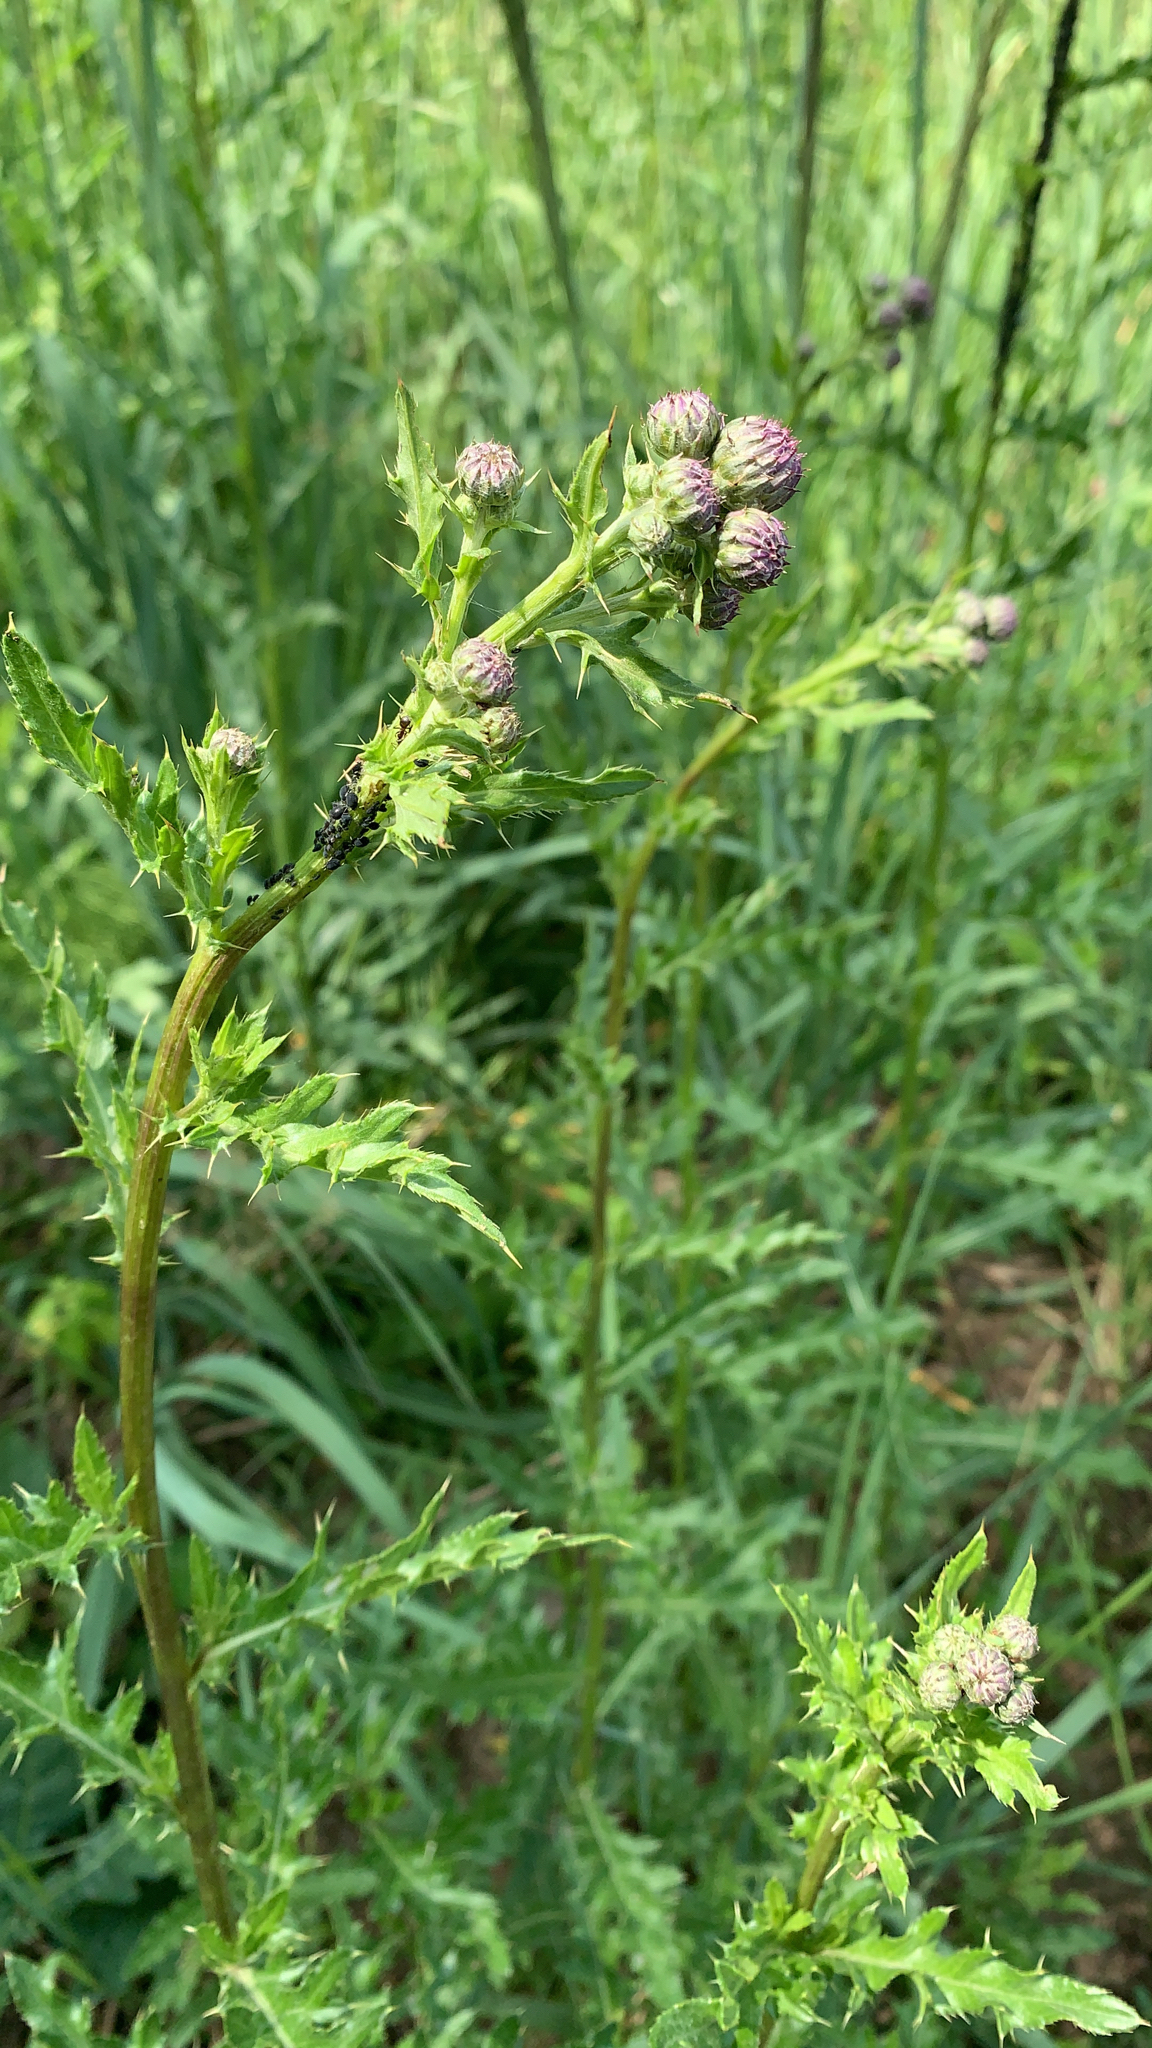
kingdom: Plantae
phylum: Tracheophyta
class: Magnoliopsida
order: Asterales
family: Asteraceae
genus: Cirsium
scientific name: Cirsium arvense
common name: Creeping thistle
